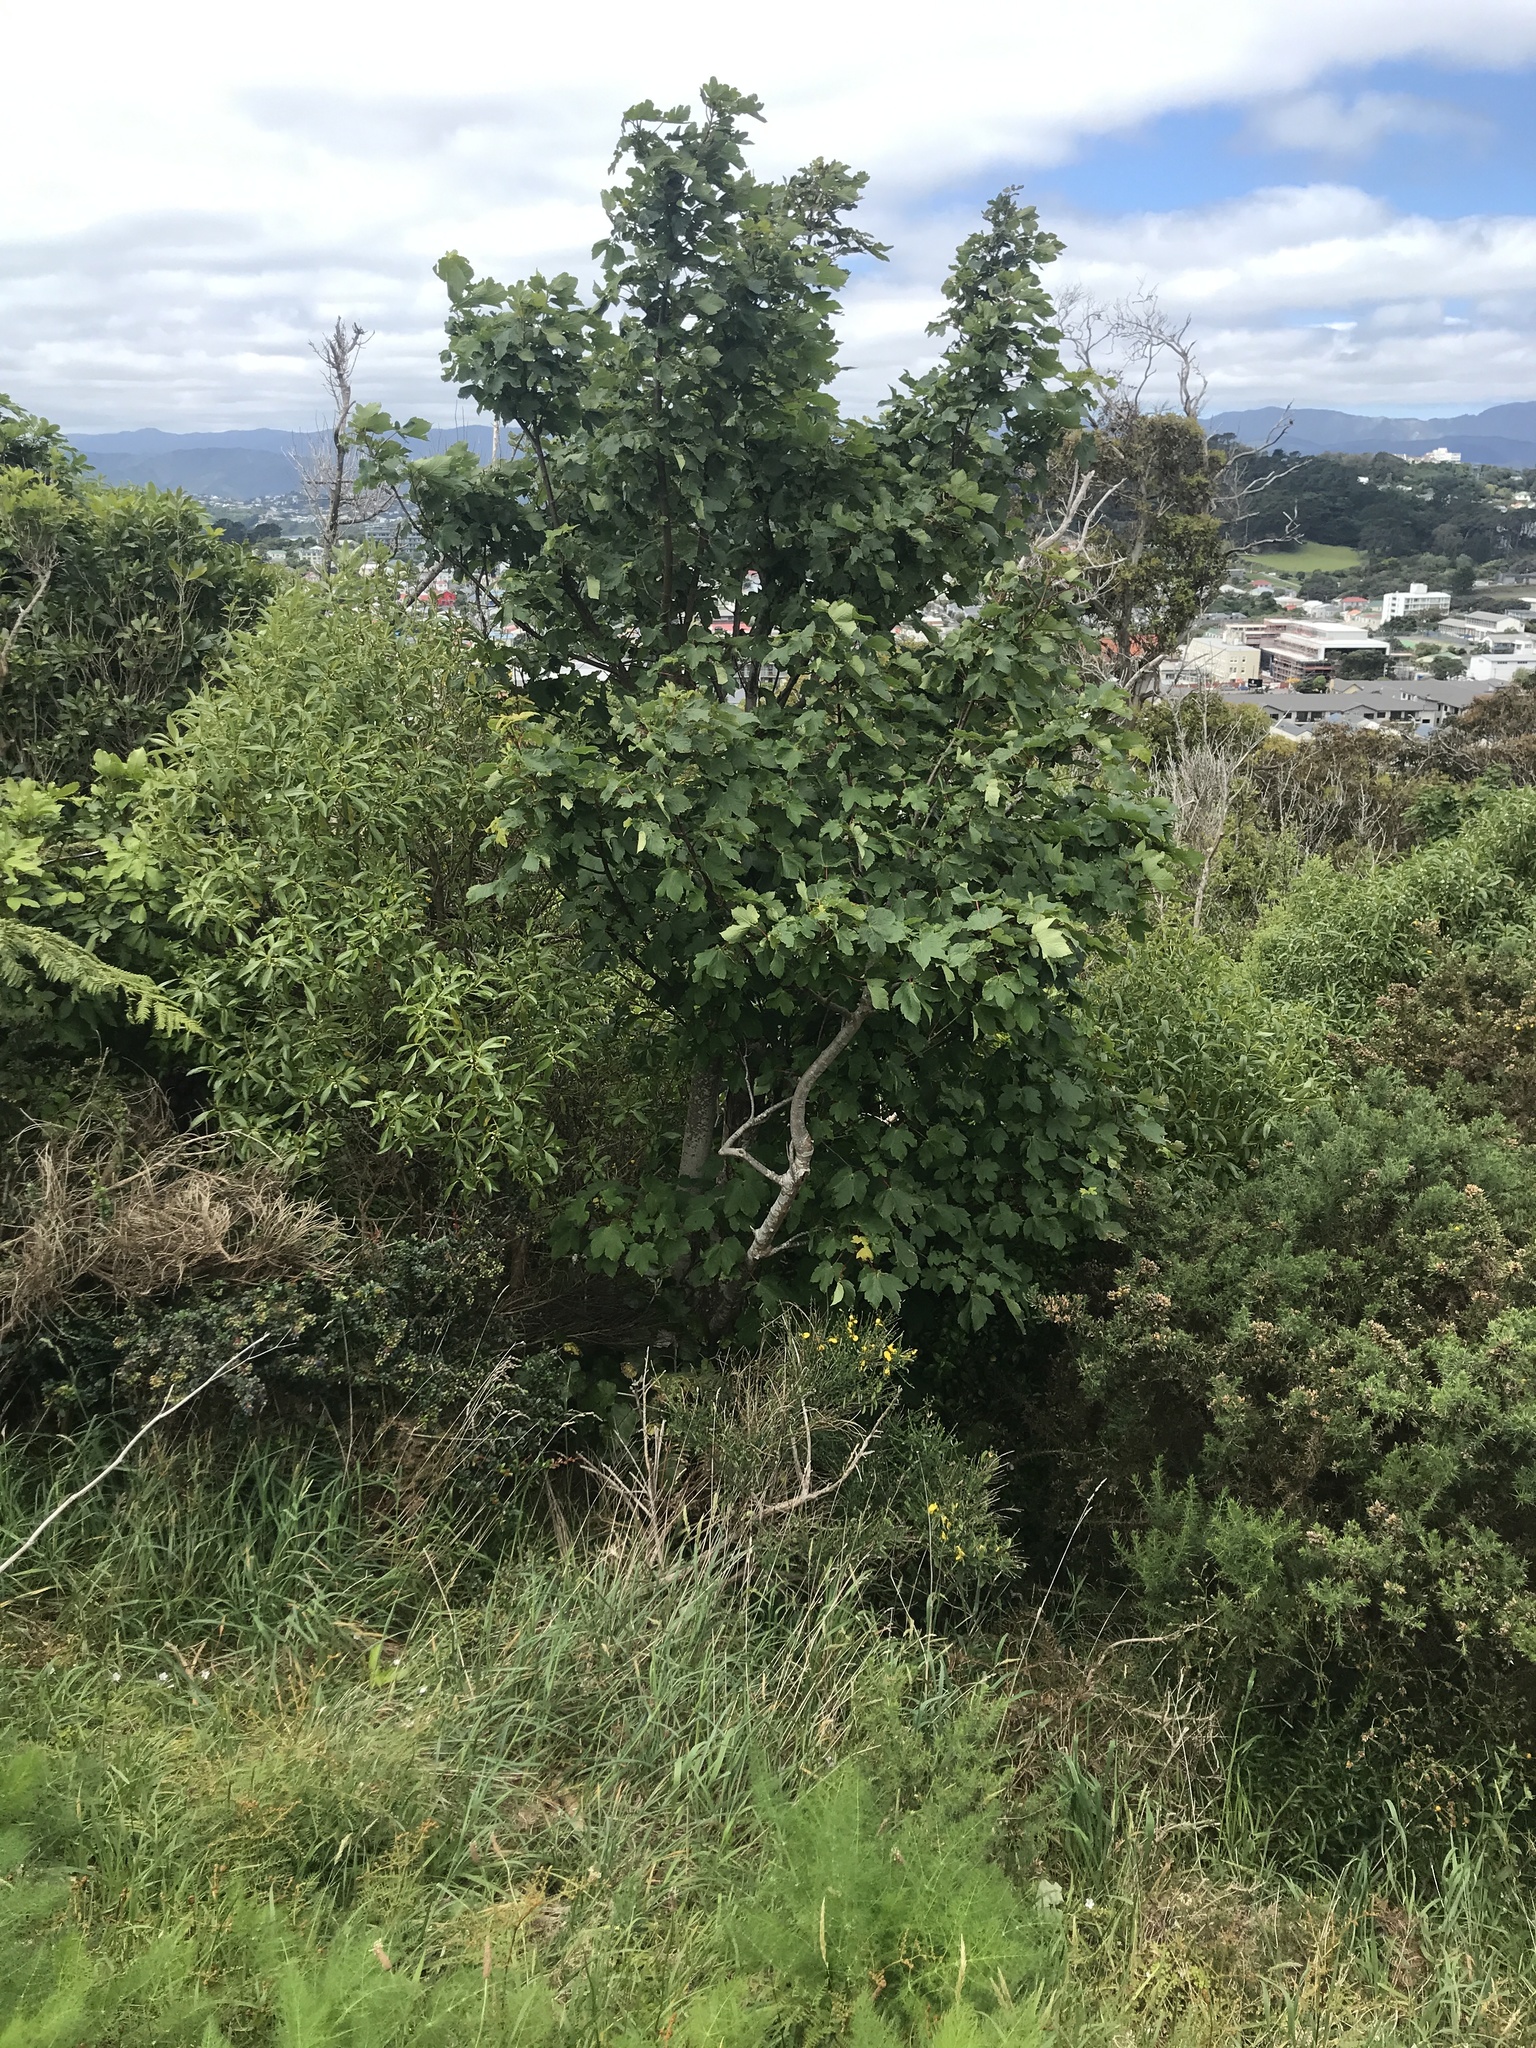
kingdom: Plantae
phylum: Tracheophyta
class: Magnoliopsida
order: Sapindales
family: Sapindaceae
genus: Acer
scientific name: Acer pseudoplatanus
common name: Sycamore
